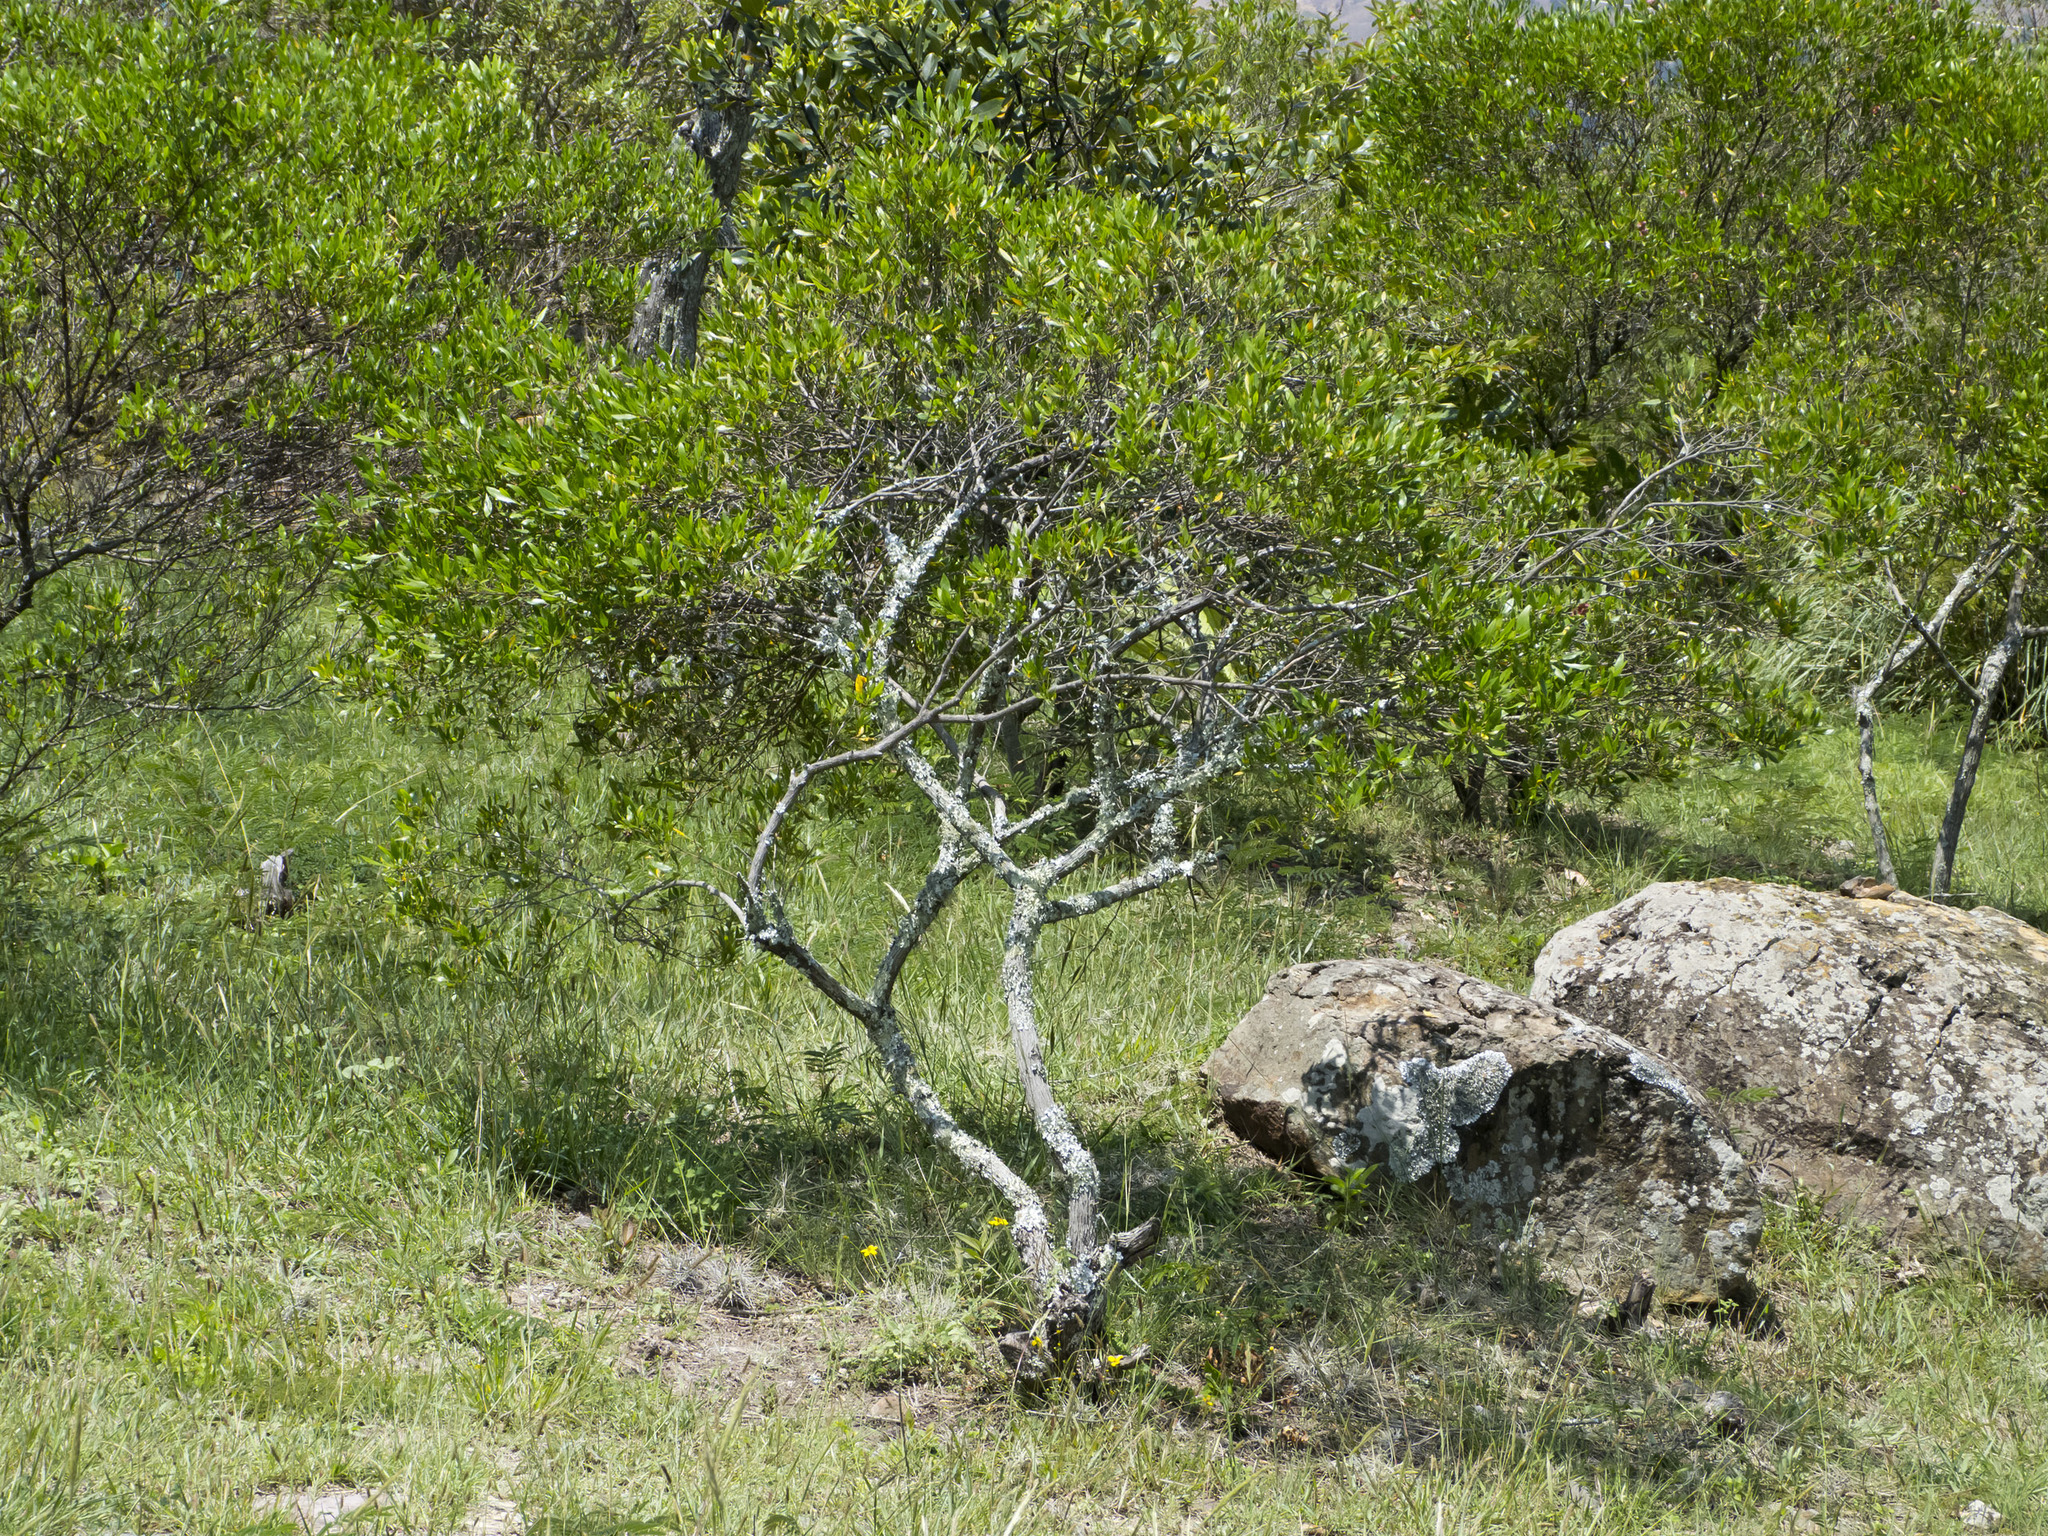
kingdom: Plantae
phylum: Tracheophyta
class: Magnoliopsida
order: Sapindales
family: Sapindaceae
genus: Dodonaea
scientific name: Dodonaea viscosa
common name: Hopbush
